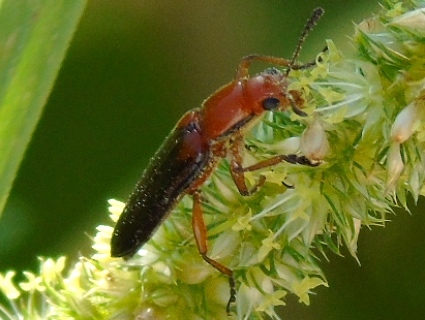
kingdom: Animalia
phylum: Arthropoda
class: Insecta
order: Coleoptera
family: Erotylidae
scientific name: Erotylidae
